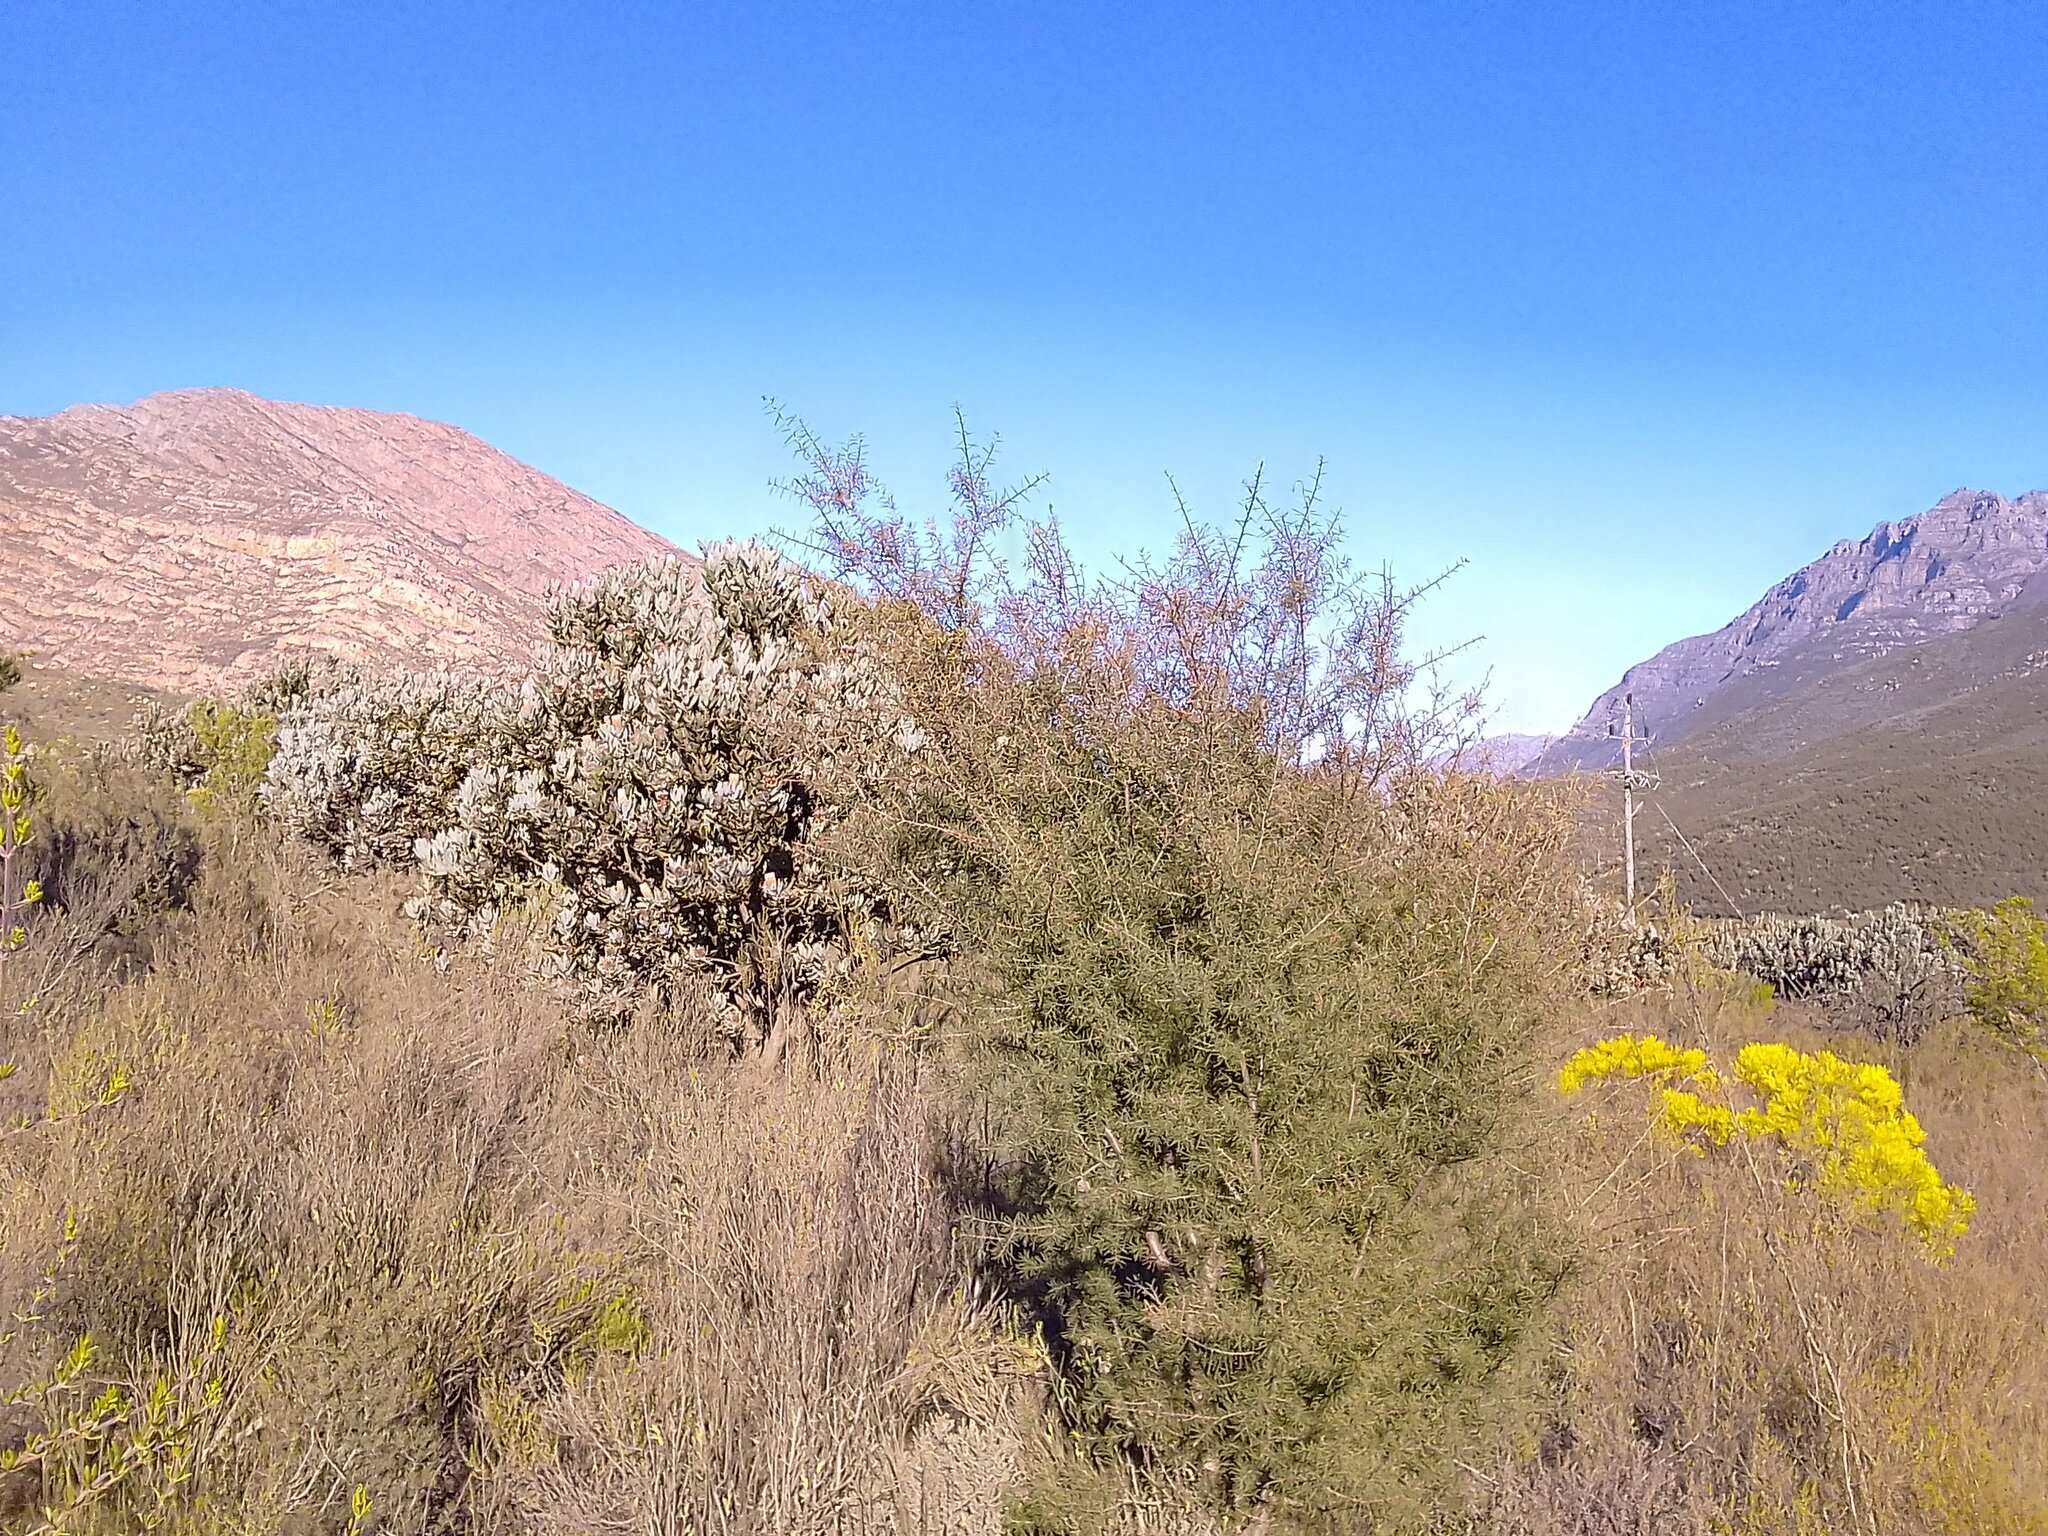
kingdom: Plantae
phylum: Tracheophyta
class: Magnoliopsida
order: Proteales
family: Proteaceae
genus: Hakea
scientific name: Hakea sericea
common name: Needle bush
